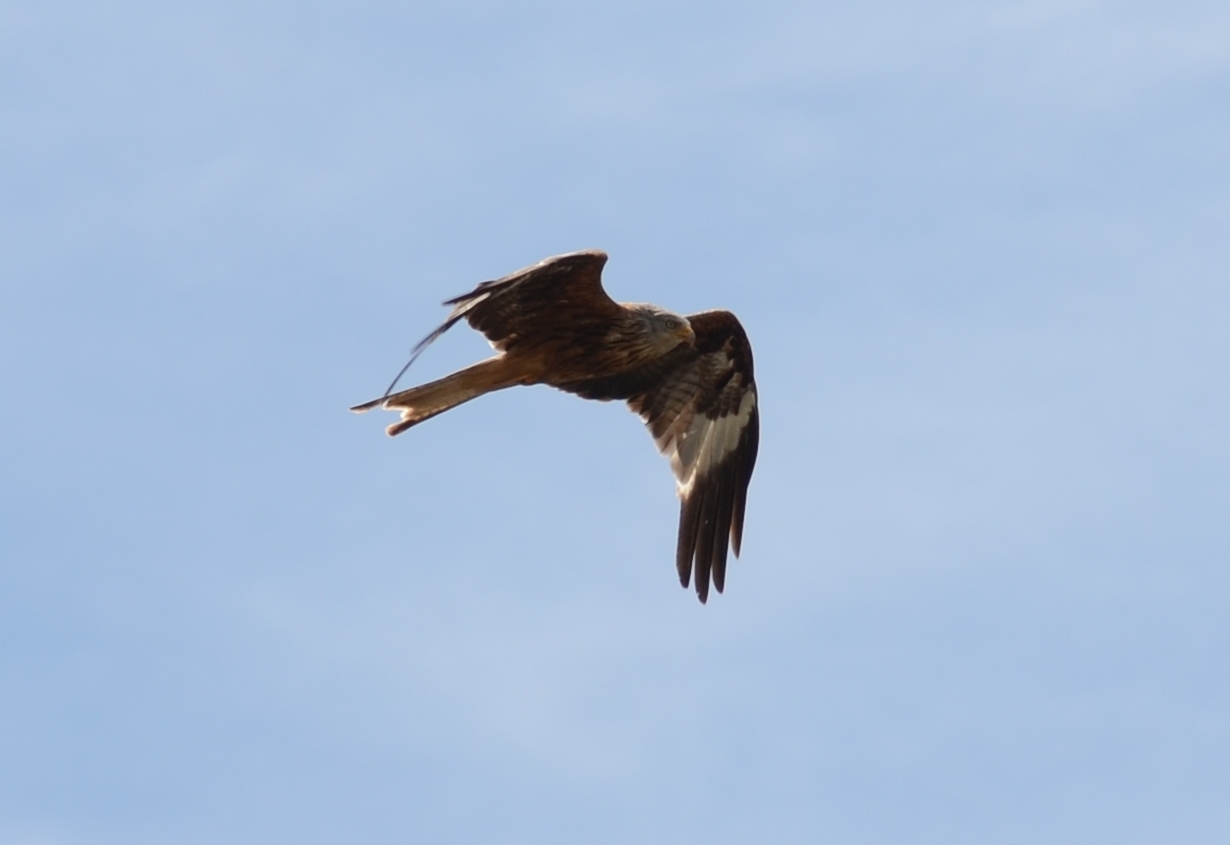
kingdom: Animalia
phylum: Chordata
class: Aves
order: Accipitriformes
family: Accipitridae
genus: Milvus
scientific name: Milvus milvus
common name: Red kite
